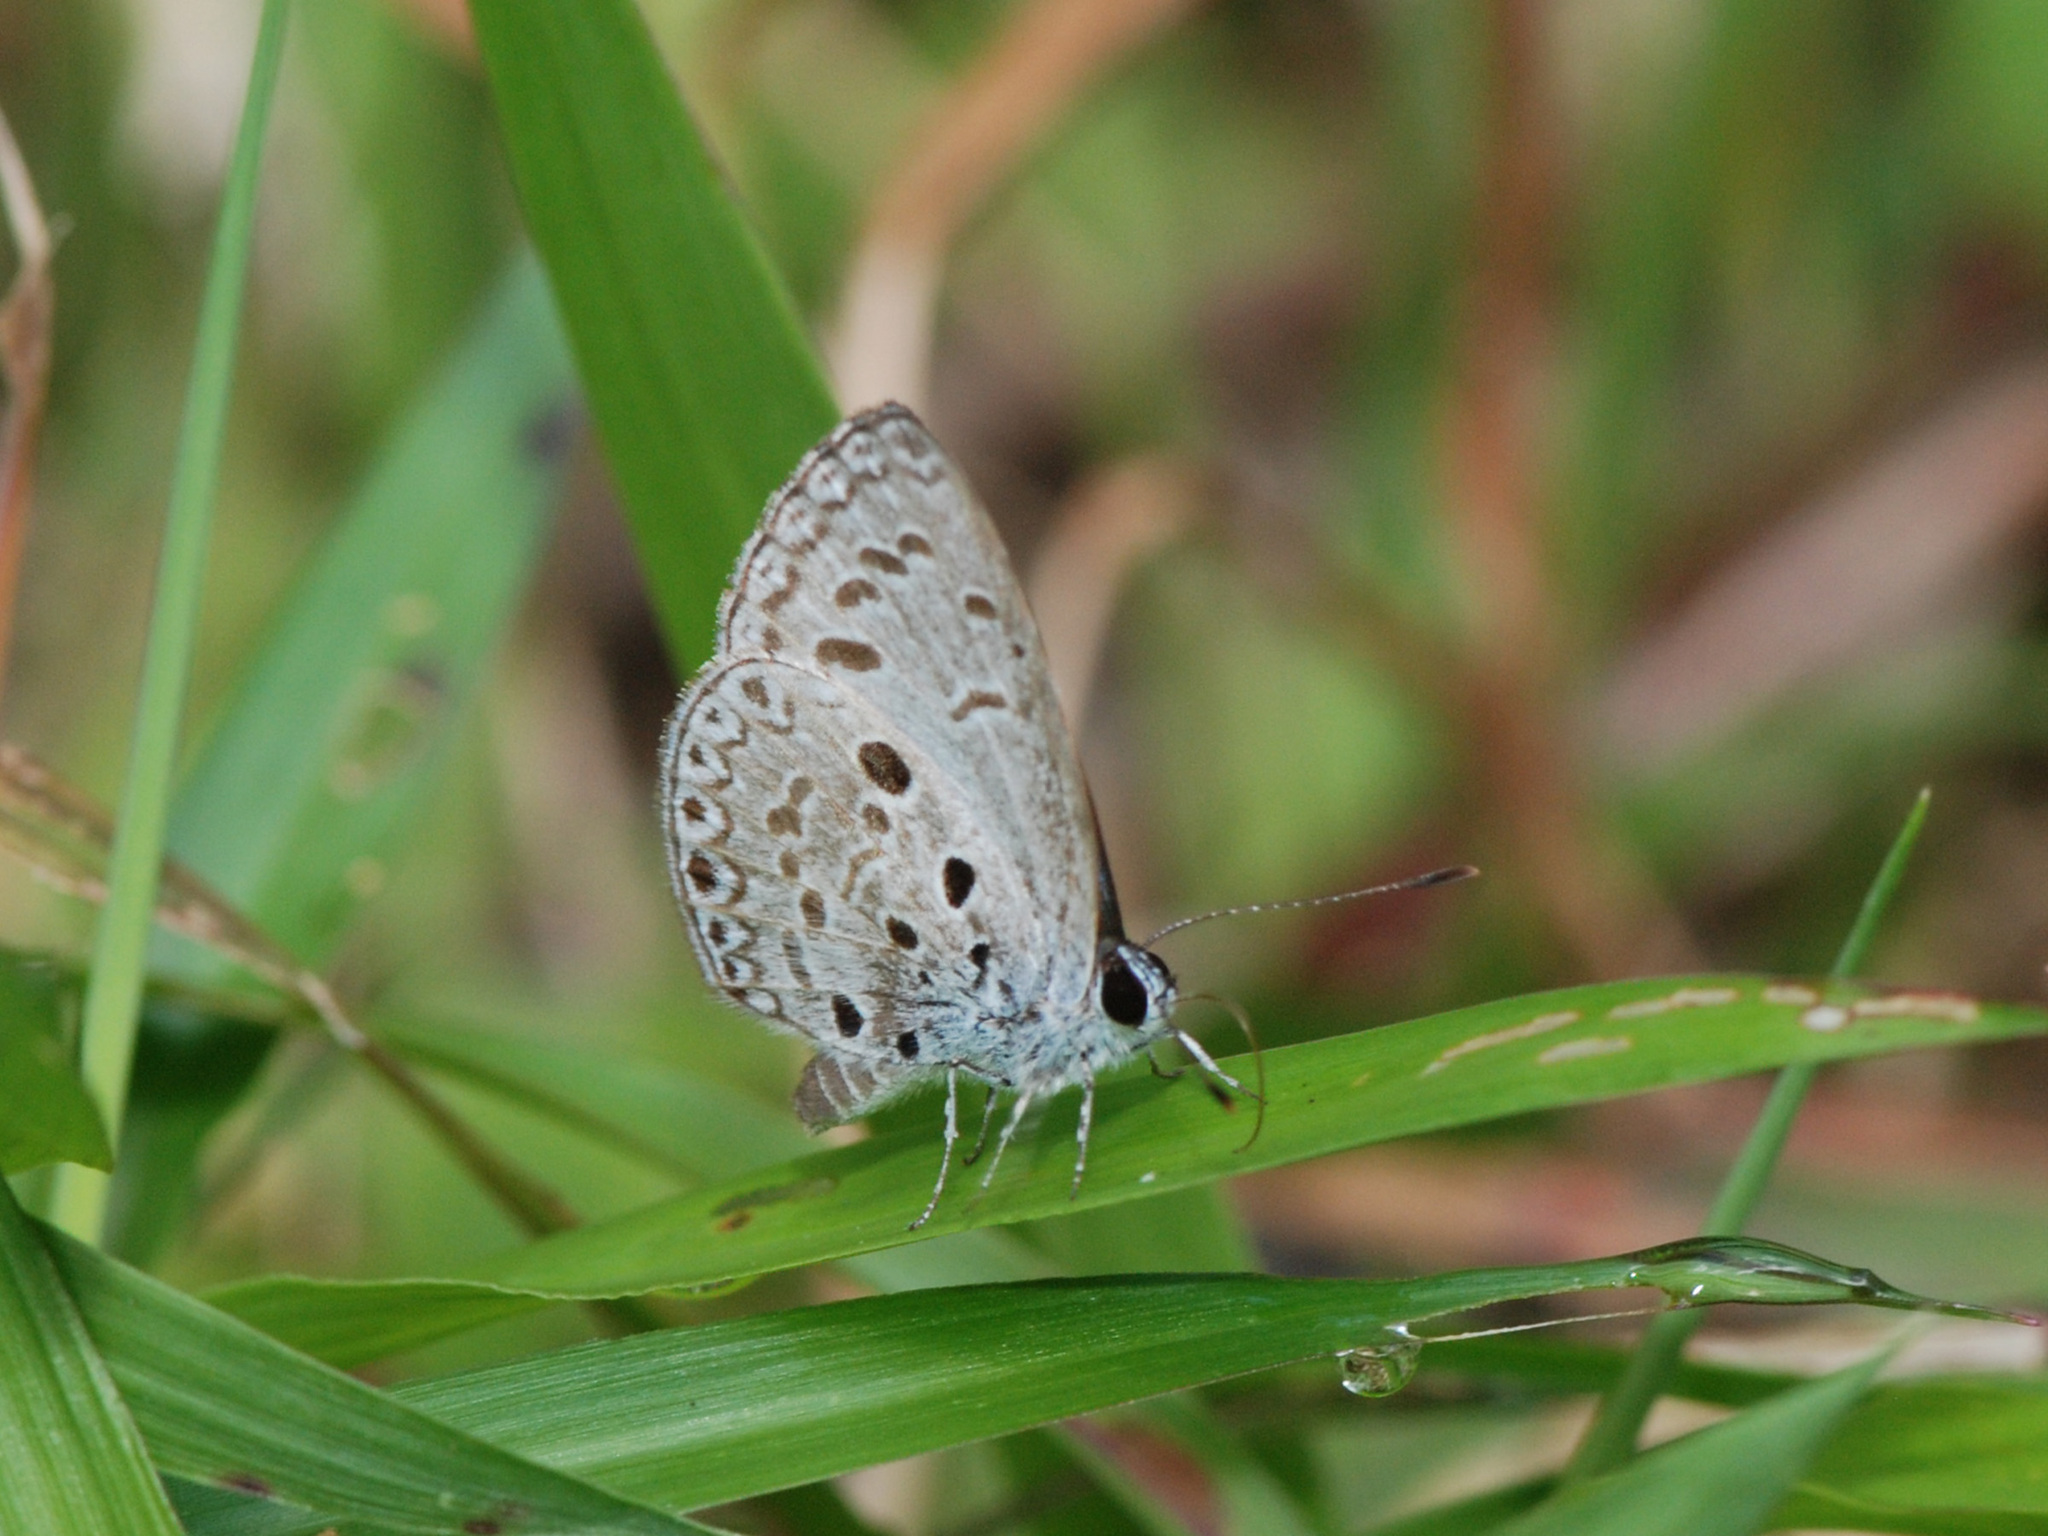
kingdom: Animalia
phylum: Arthropoda
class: Insecta
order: Lepidoptera
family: Lycaenidae
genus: Acytolepis
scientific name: Acytolepis puspa
